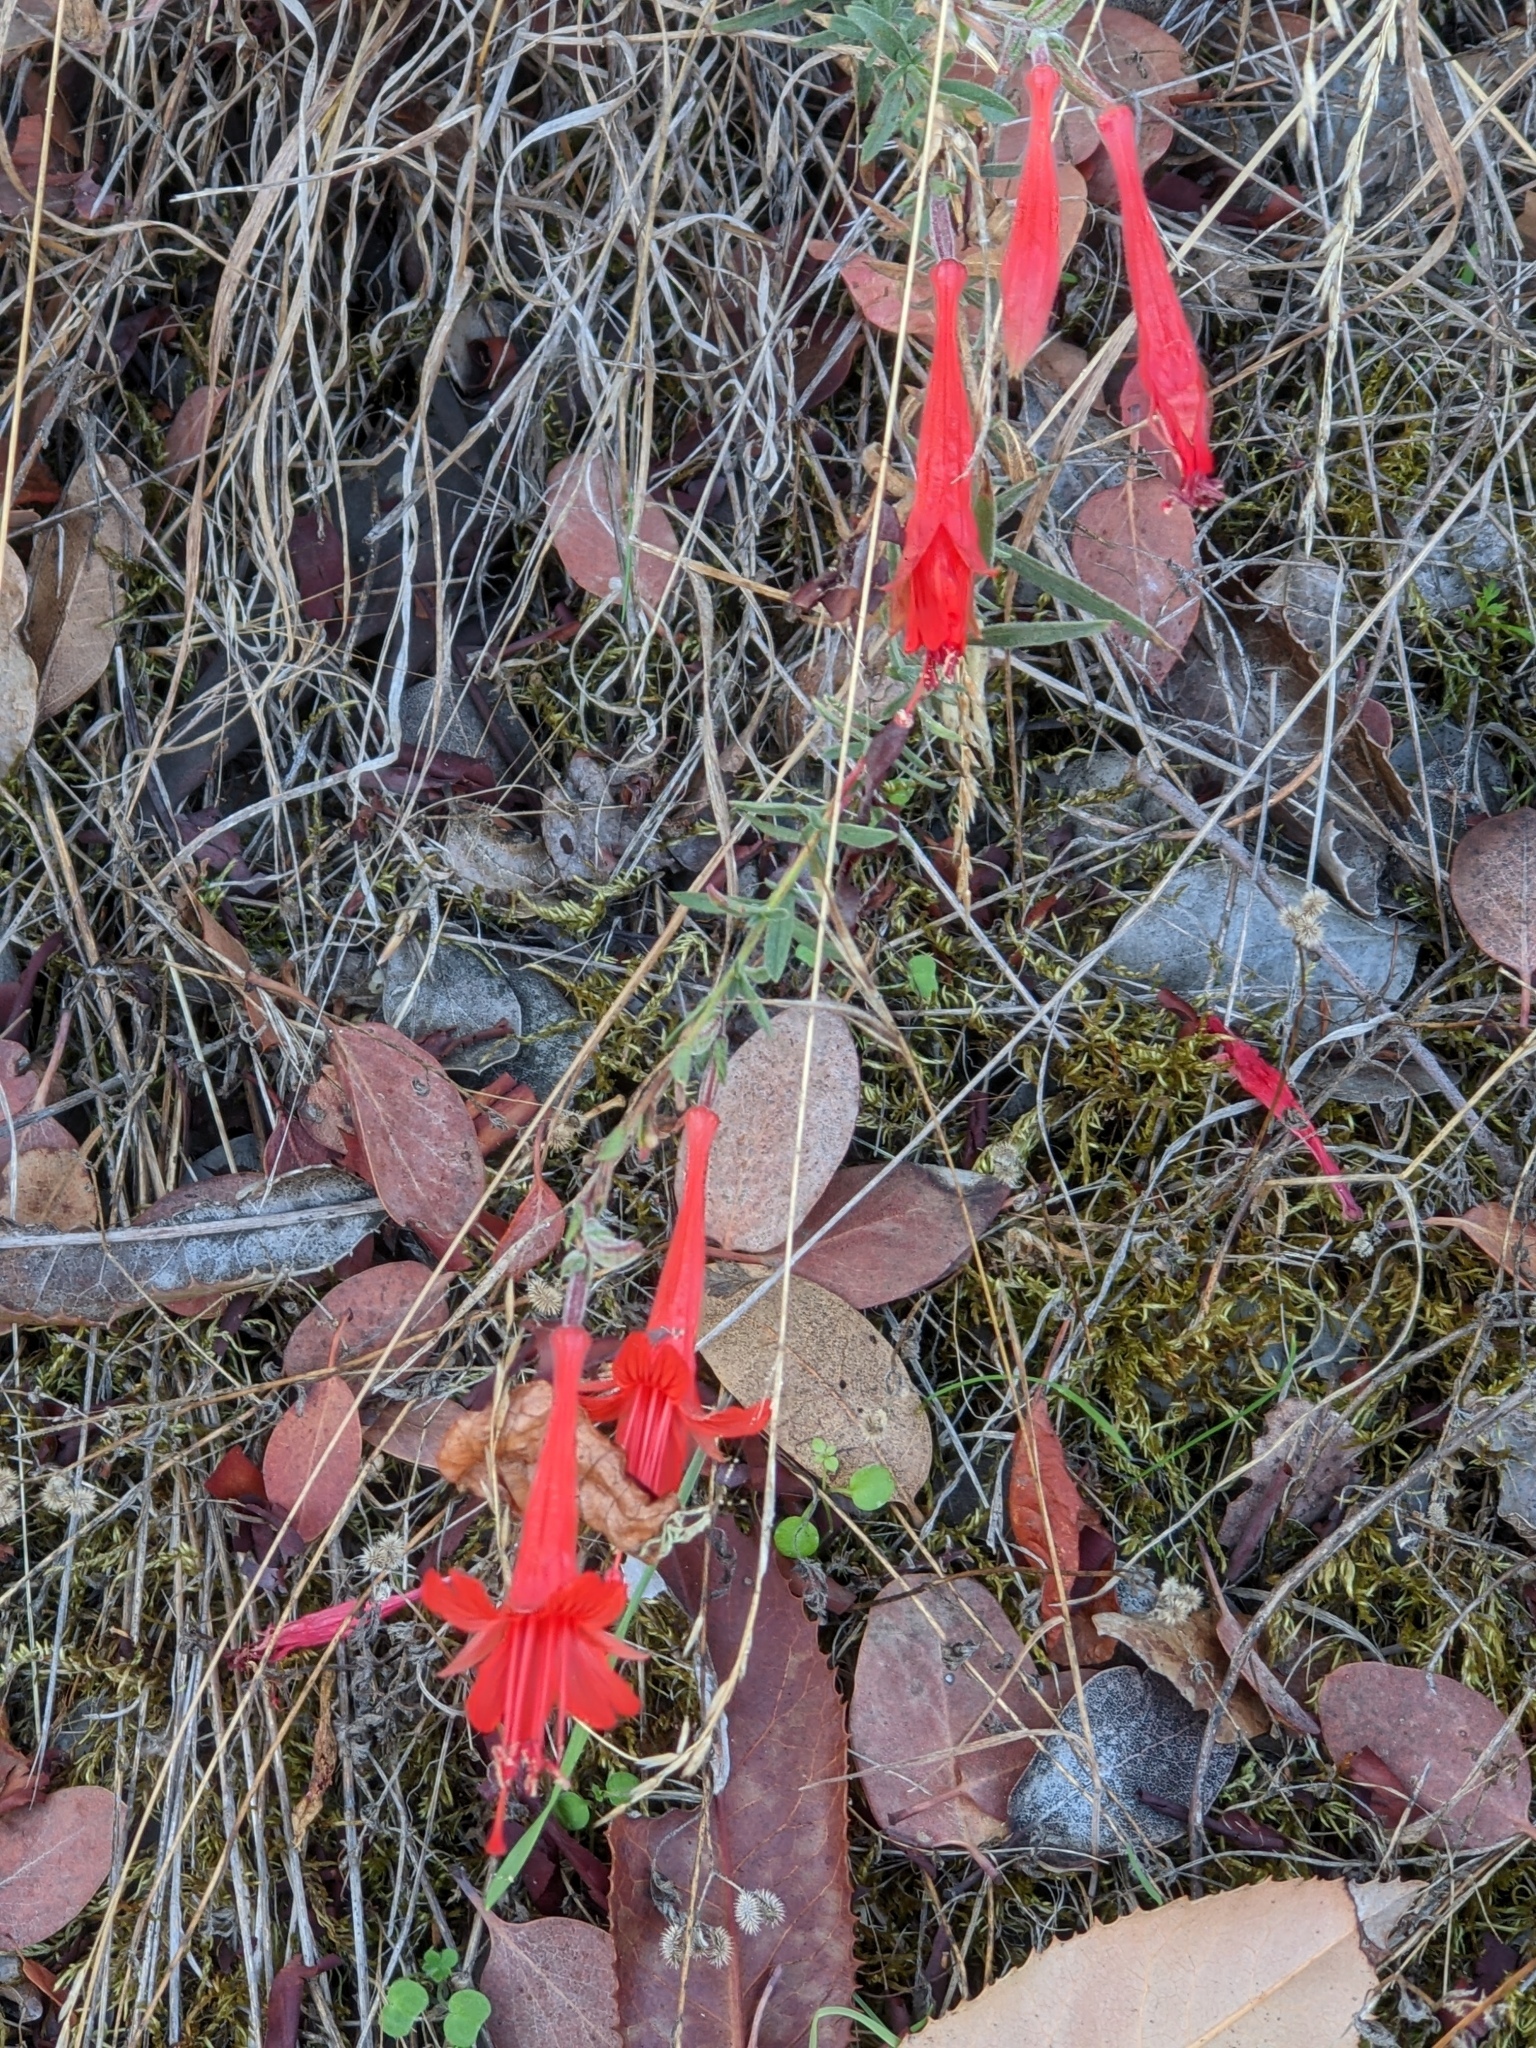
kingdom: Plantae
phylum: Tracheophyta
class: Magnoliopsida
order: Myrtales
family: Onagraceae
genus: Epilobium
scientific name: Epilobium canum
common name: California-fuchsia
